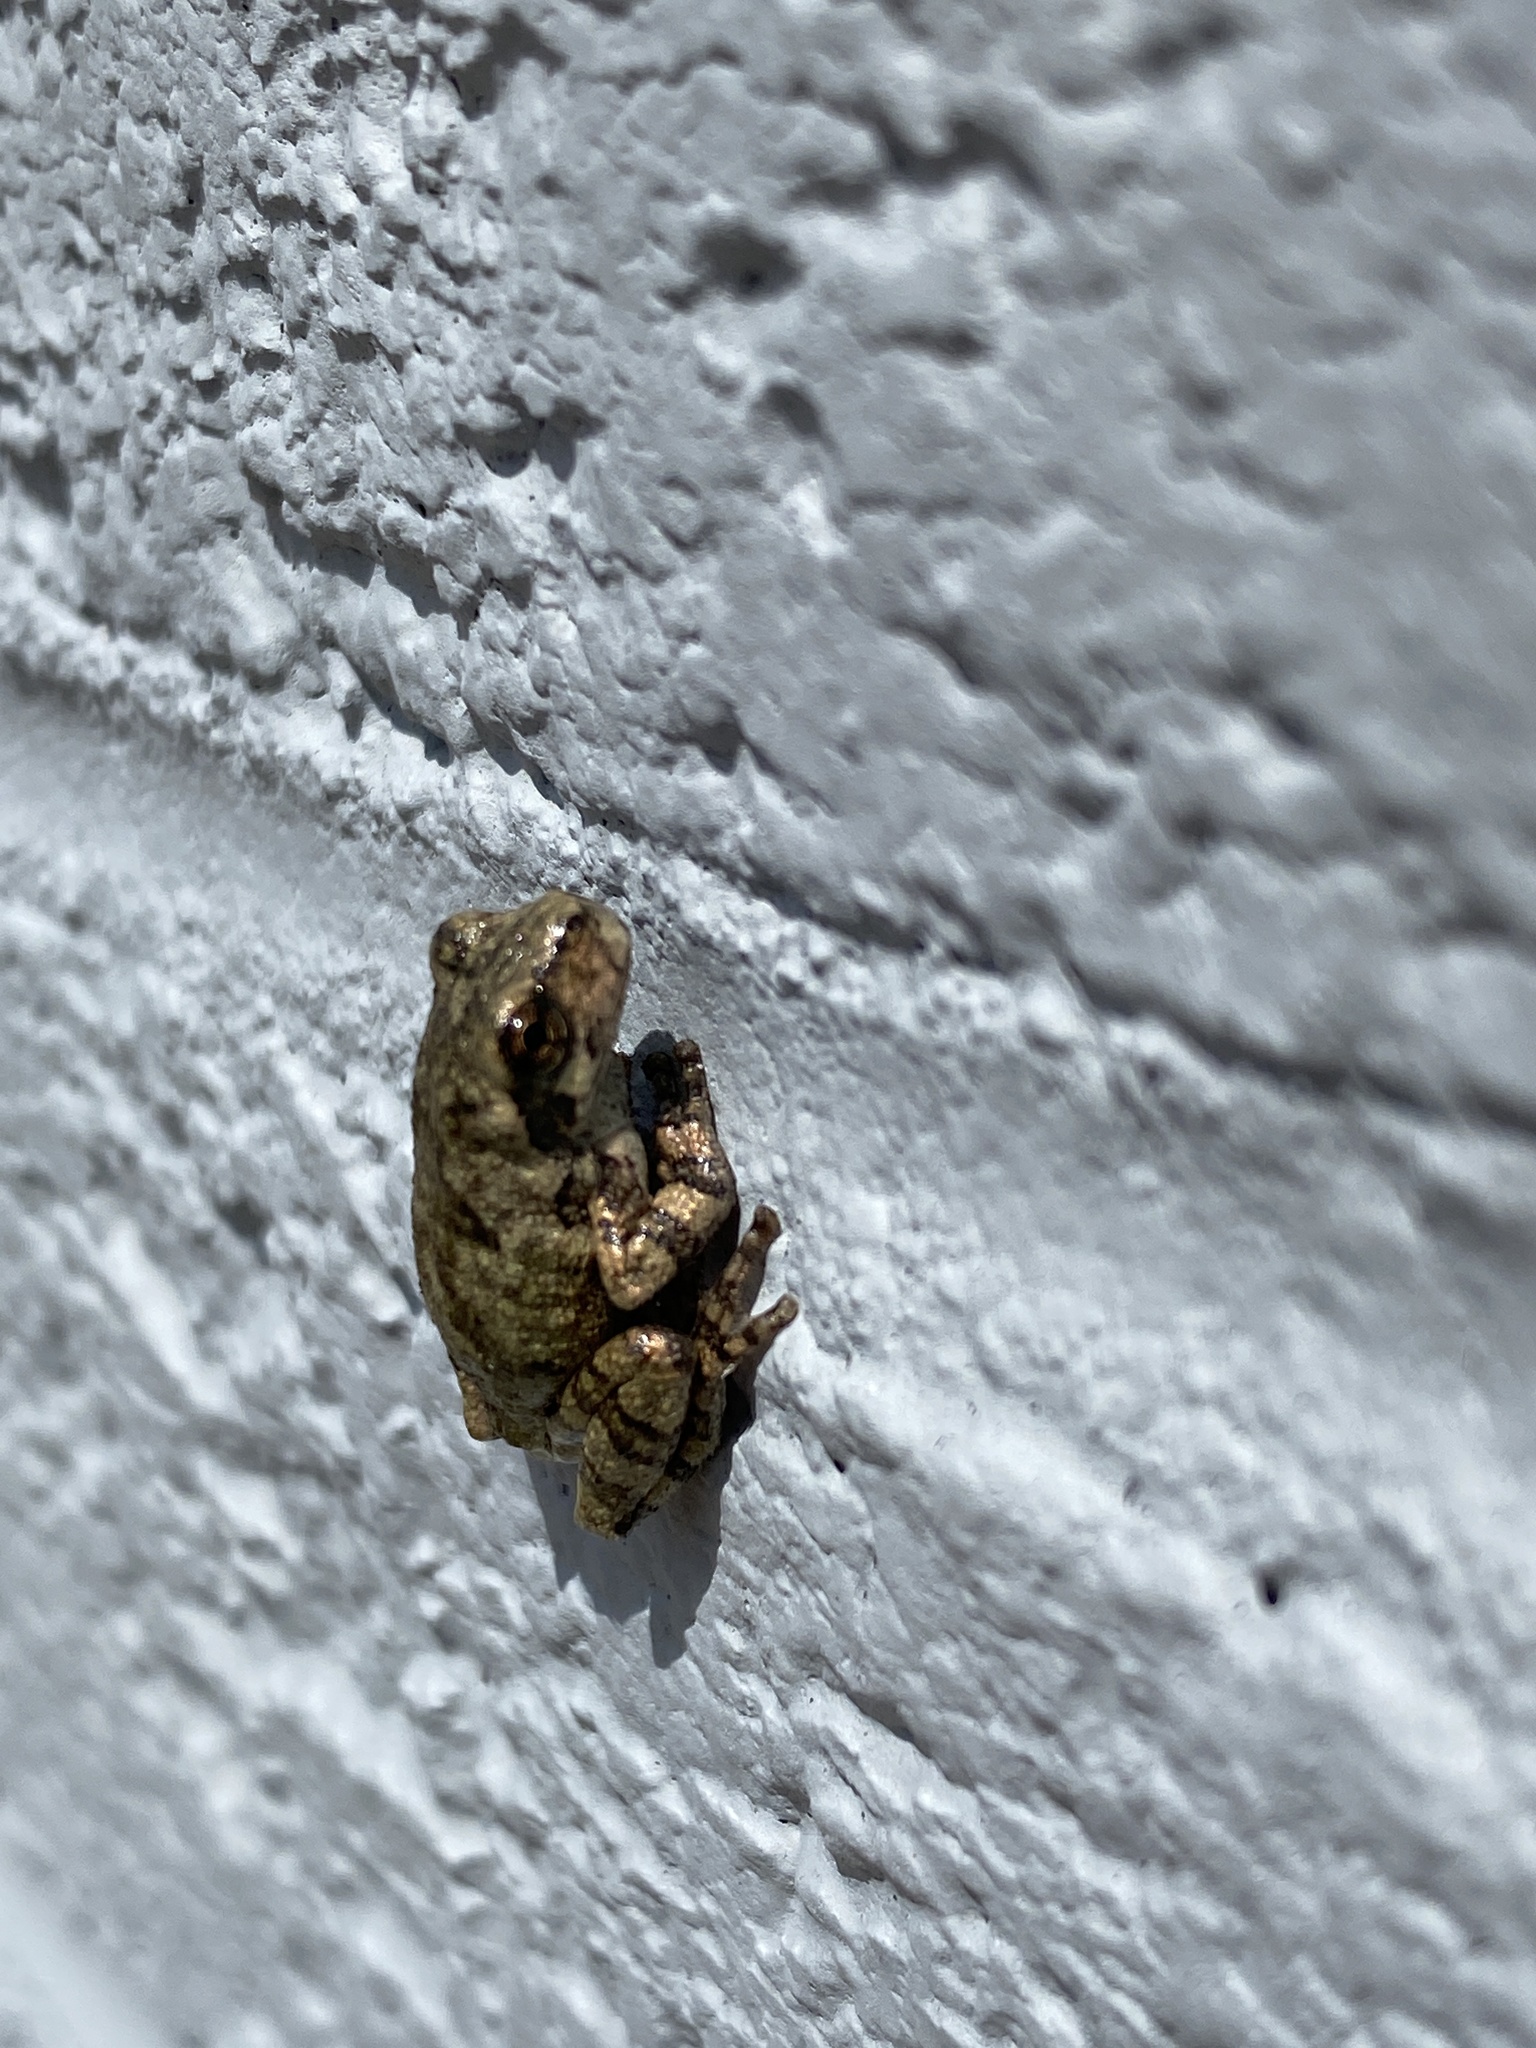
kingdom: Animalia
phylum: Chordata
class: Amphibia
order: Anura
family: Hylidae
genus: Dryophytes
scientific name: Dryophytes chrysoscelis
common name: Cope's gray treefrog
